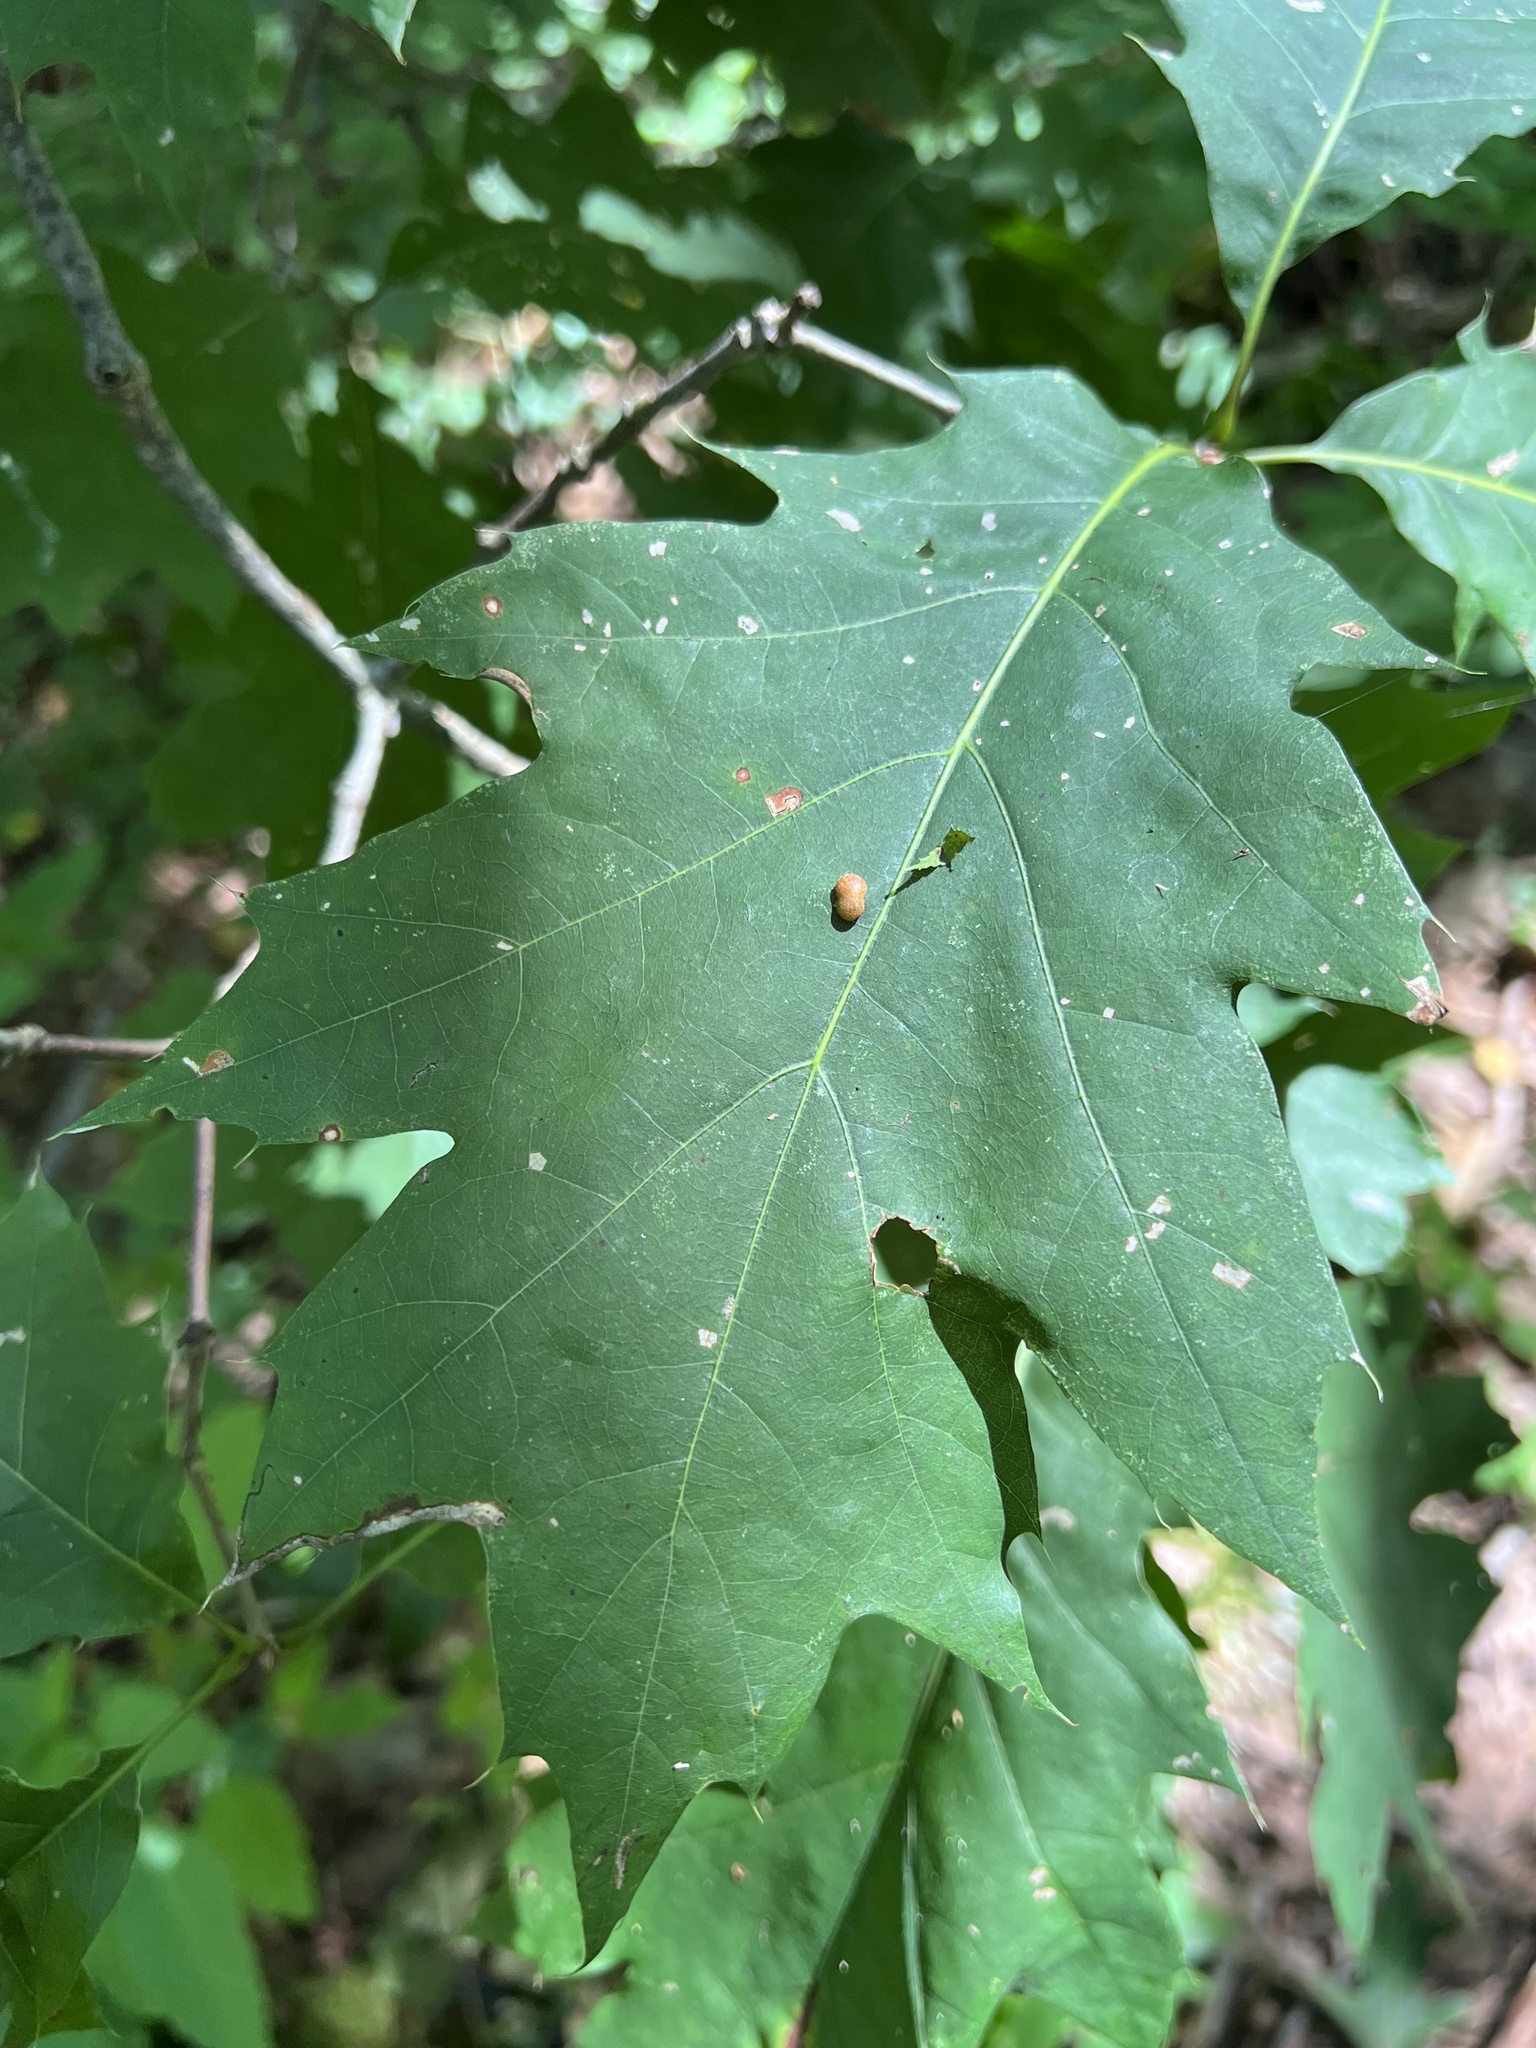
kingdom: Animalia
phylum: Arthropoda
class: Insecta
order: Diptera
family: Cecidomyiidae
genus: Polystepha
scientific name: Polystepha pilulae
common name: Oak leaf gall midge
